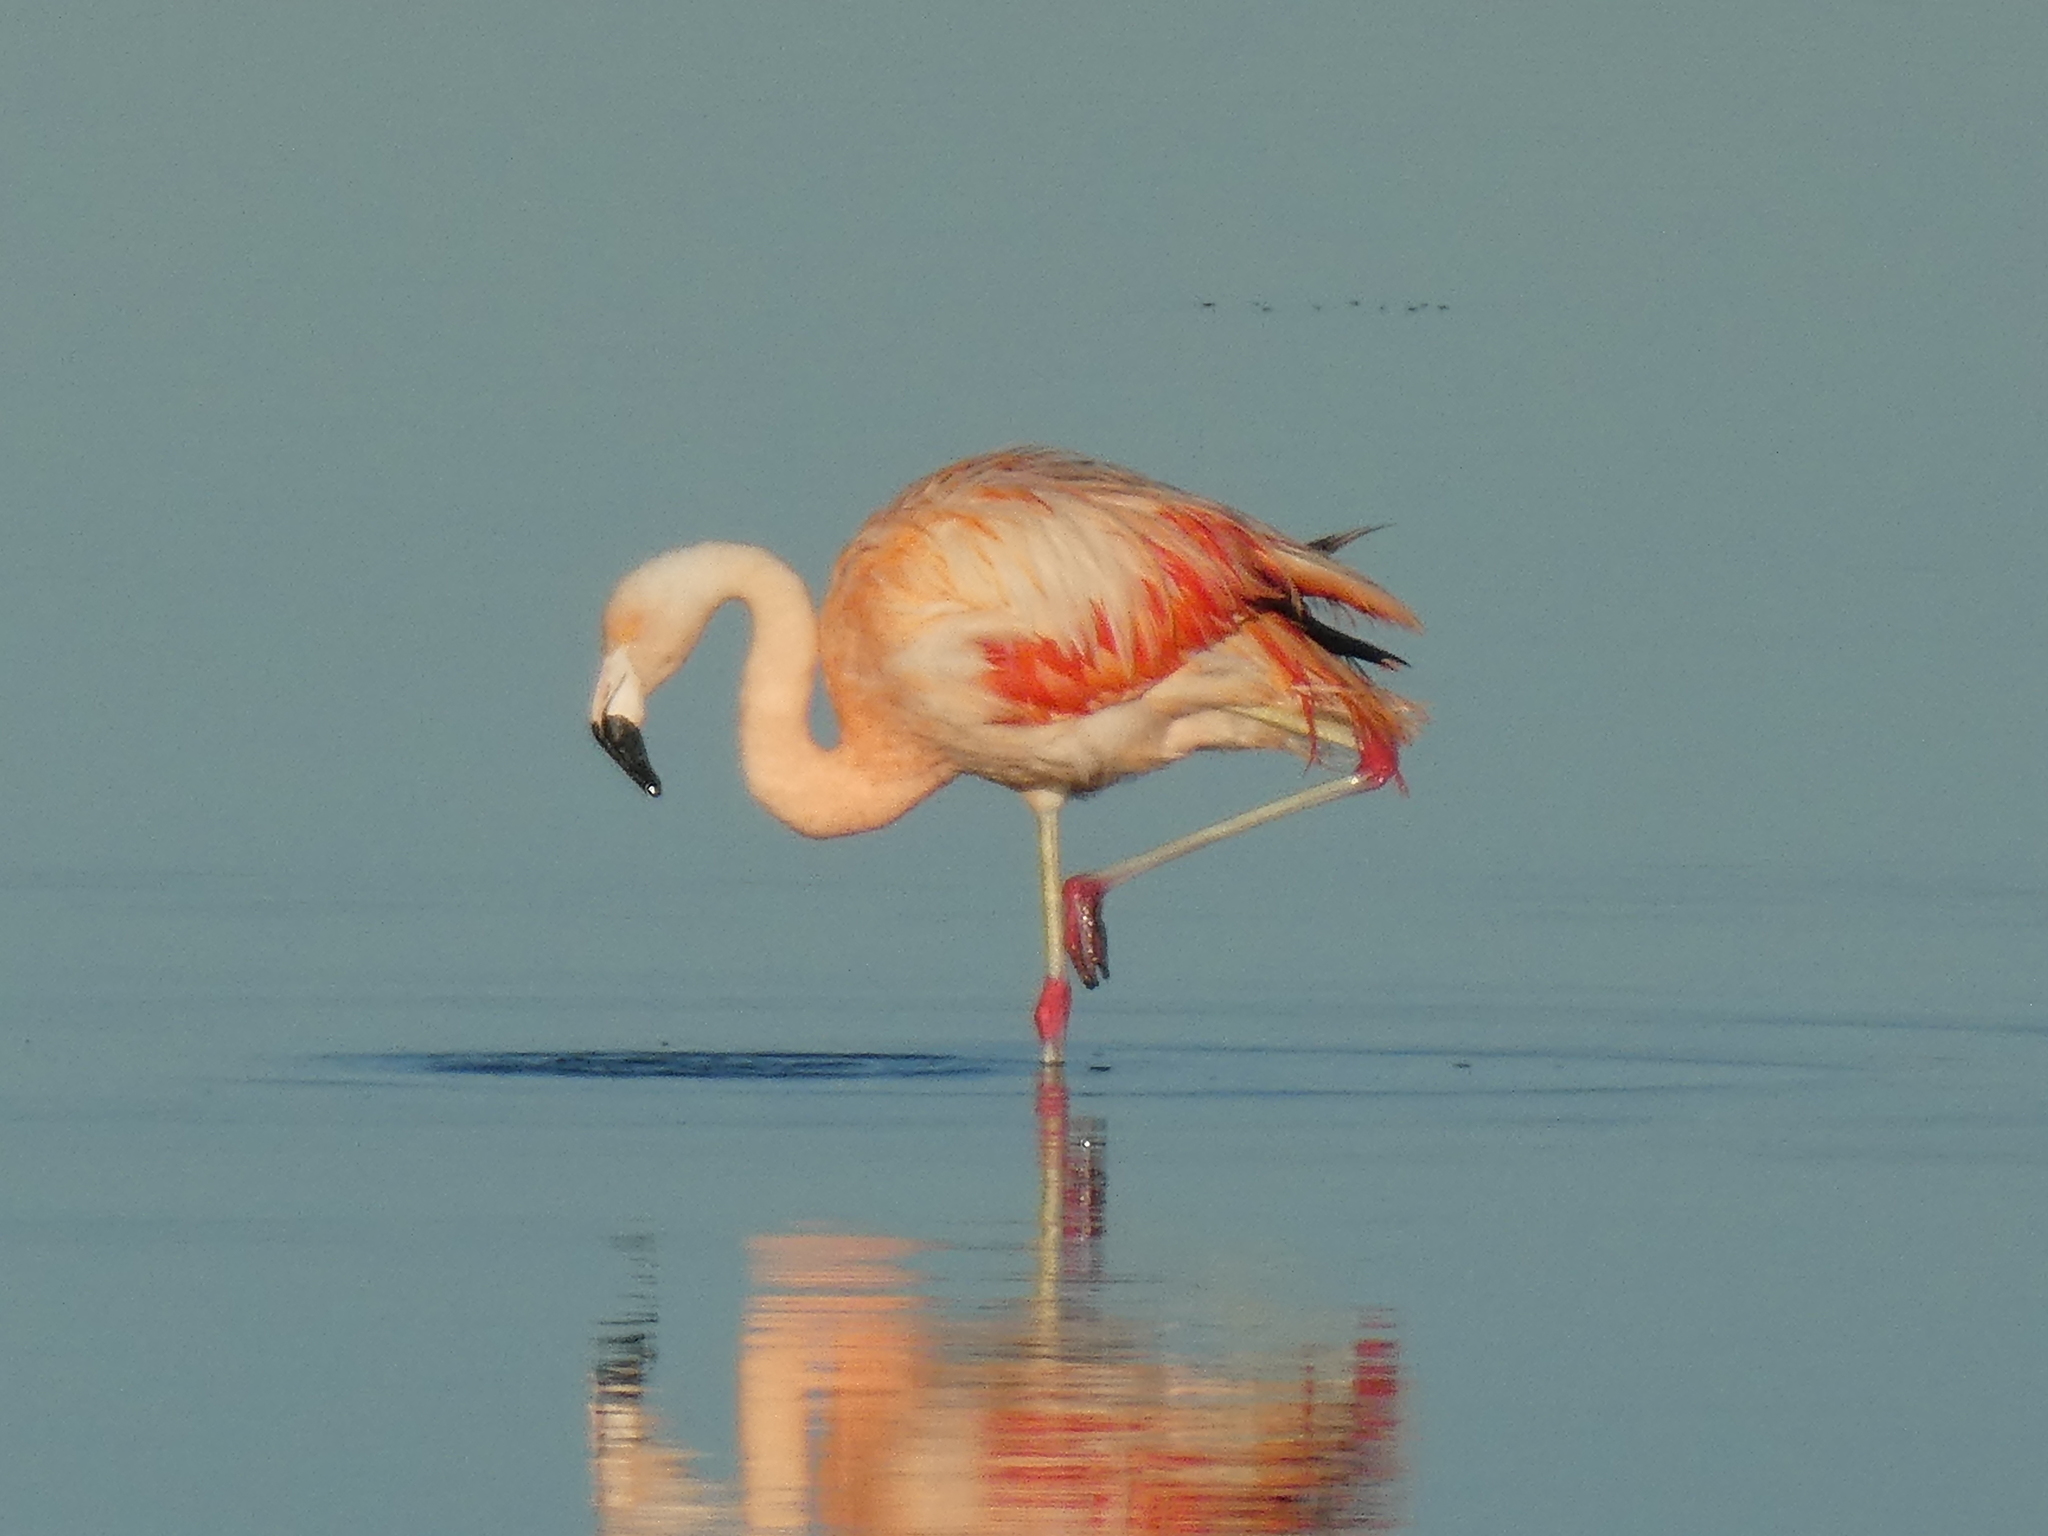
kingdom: Animalia
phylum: Chordata
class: Aves
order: Phoenicopteriformes
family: Phoenicopteridae
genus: Phoenicopterus
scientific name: Phoenicopterus chilensis
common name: Chilean flamingo
